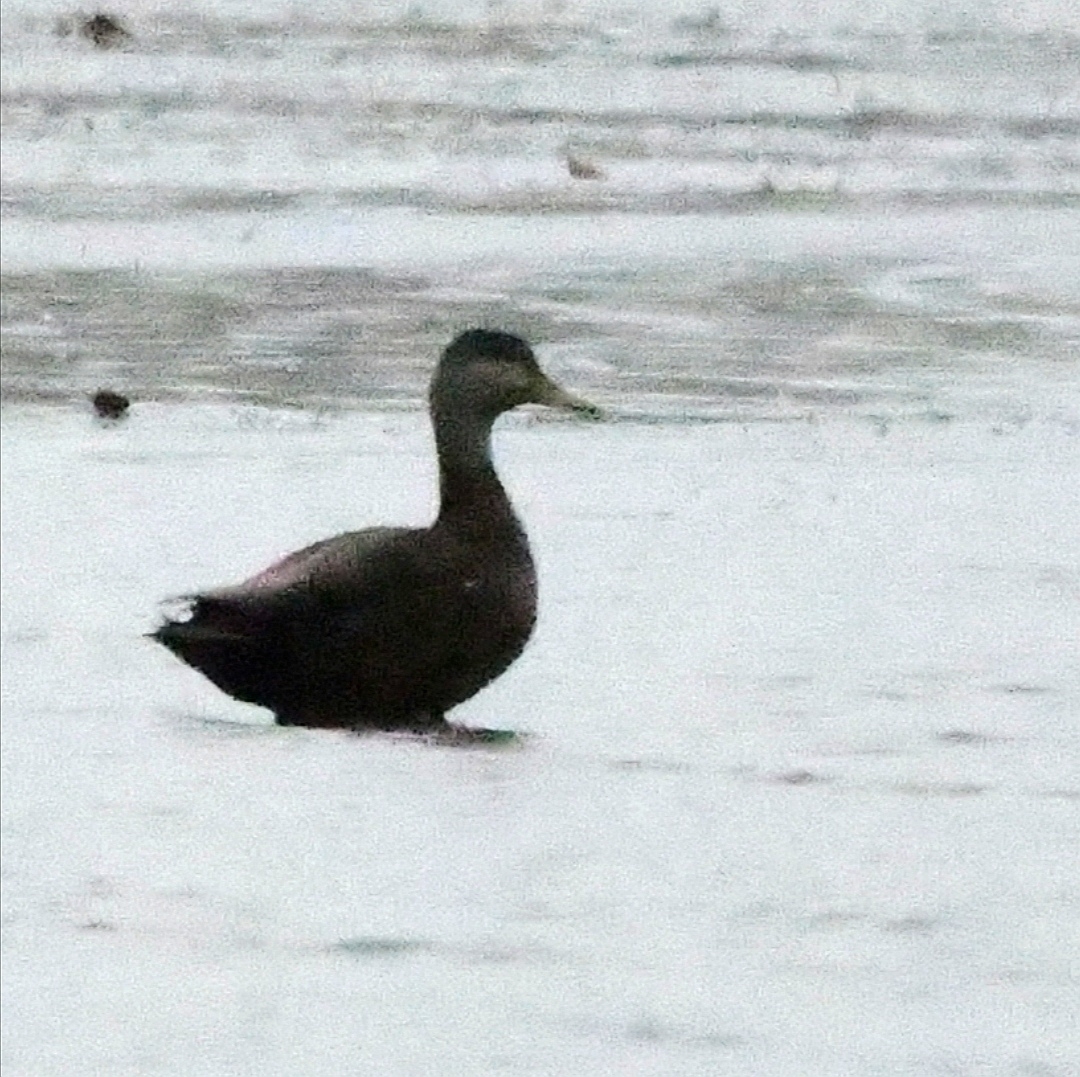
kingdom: Animalia
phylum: Chordata
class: Aves
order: Anseriformes
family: Anatidae
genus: Anas
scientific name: Anas rubripes
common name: American black duck
